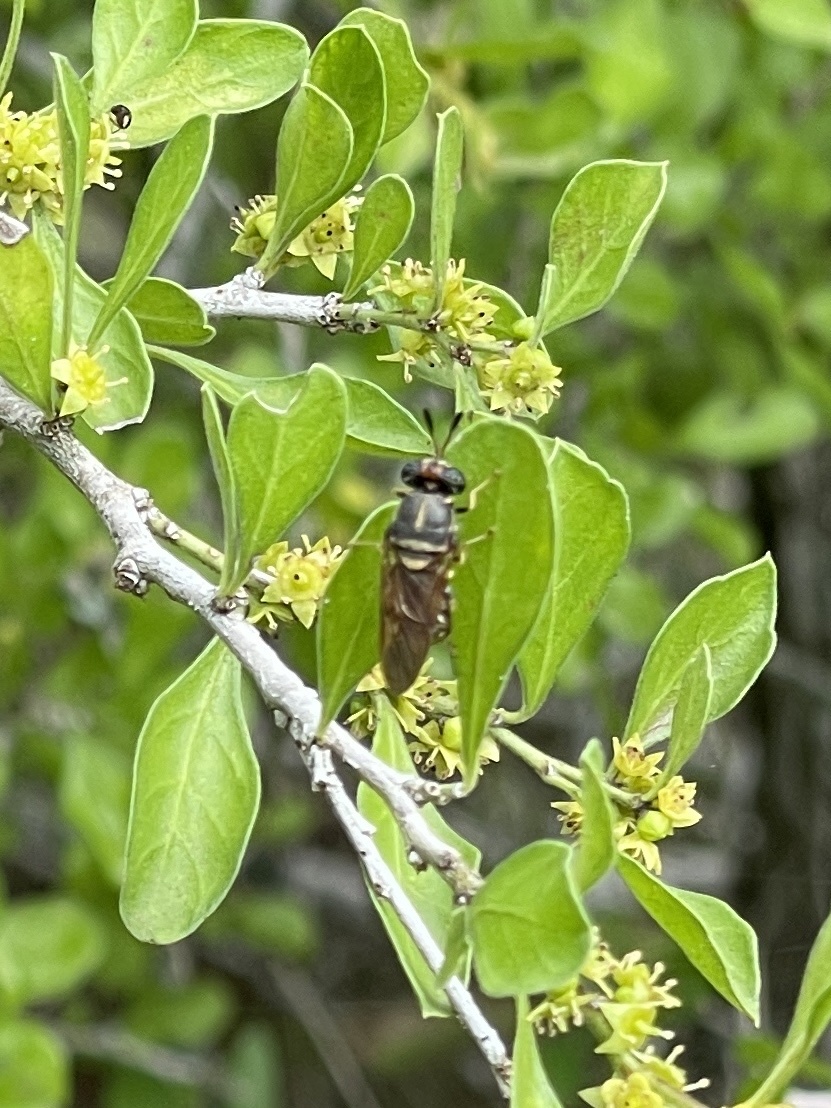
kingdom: Animalia
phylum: Arthropoda
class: Insecta
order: Diptera
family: Stratiomyidae
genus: Hermetia
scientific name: Hermetia chrysopila
